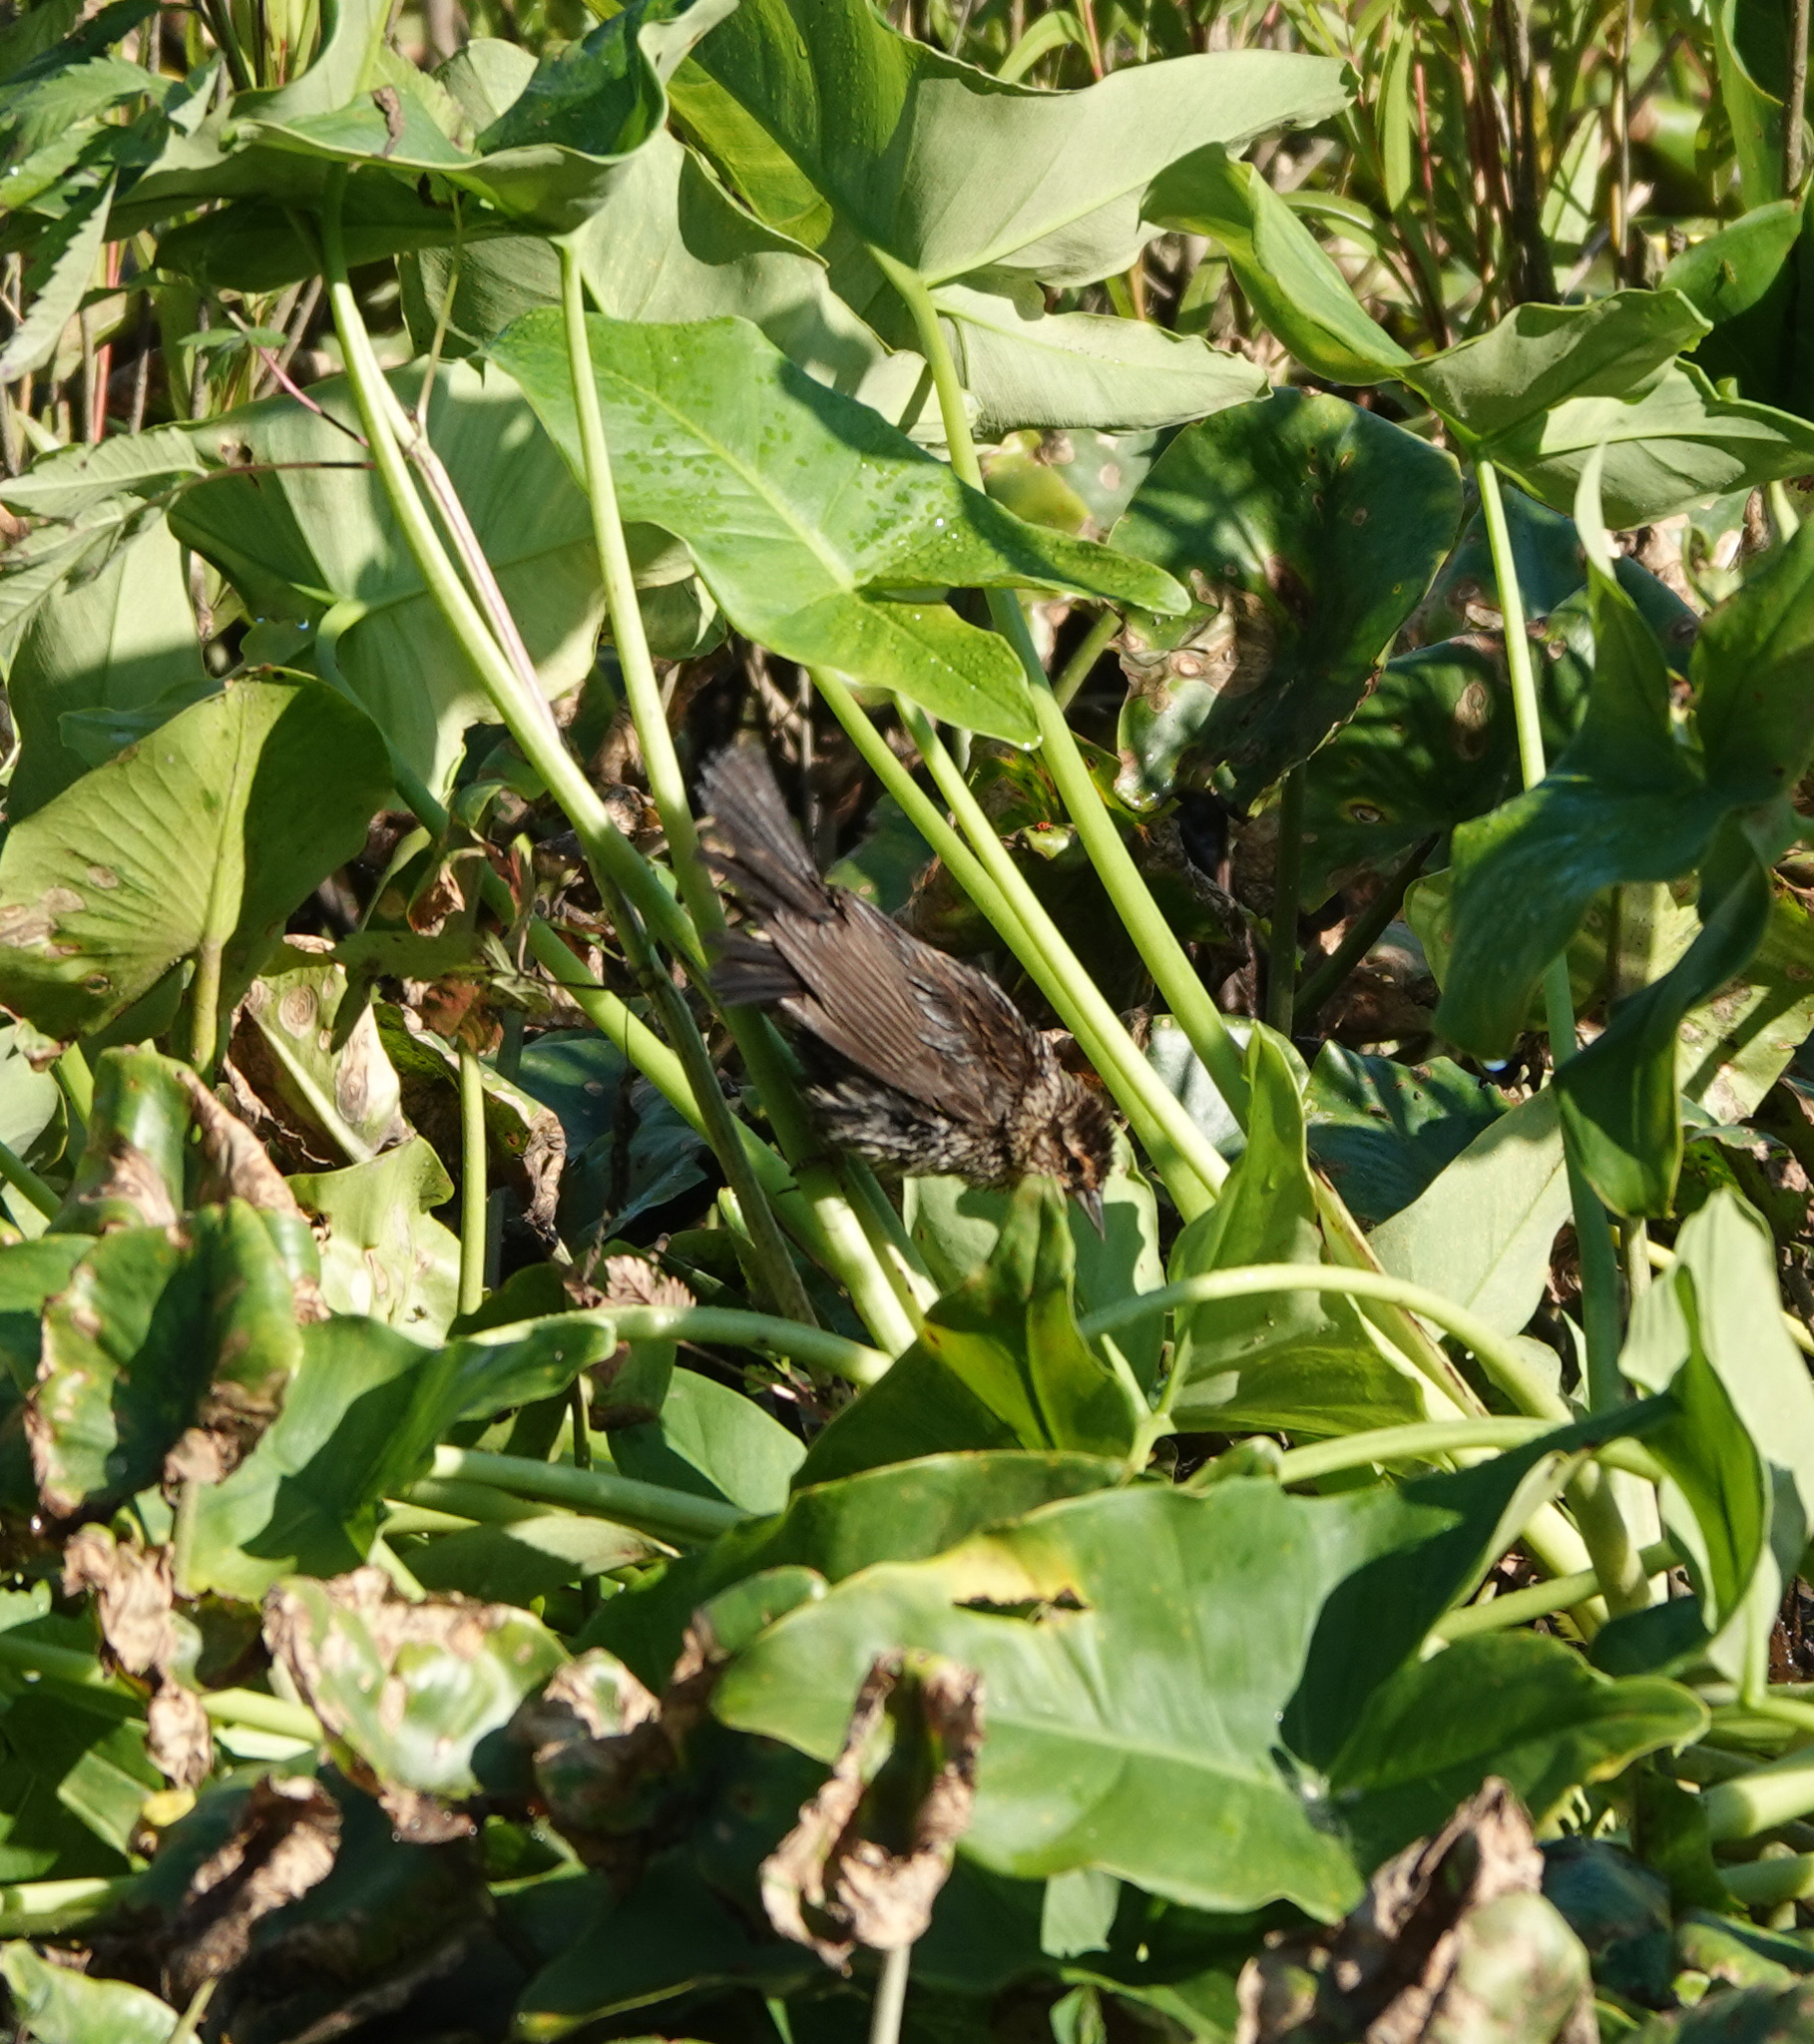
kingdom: Animalia
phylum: Chordata
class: Aves
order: Passeriformes
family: Icteridae
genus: Agelaius
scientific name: Agelaius phoeniceus
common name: Red-winged blackbird
